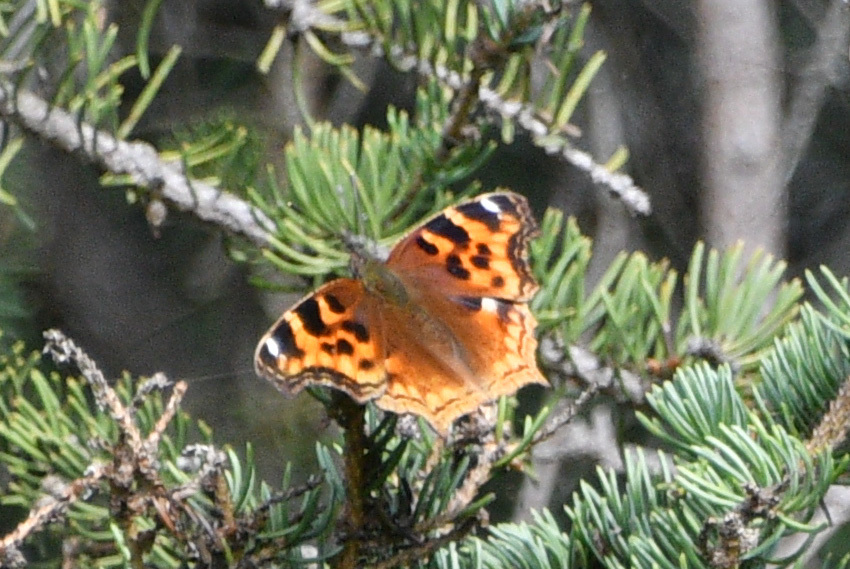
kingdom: Animalia
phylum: Arthropoda
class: Insecta
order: Lepidoptera
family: Nymphalidae
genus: Polygonia
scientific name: Polygonia vaualbum
